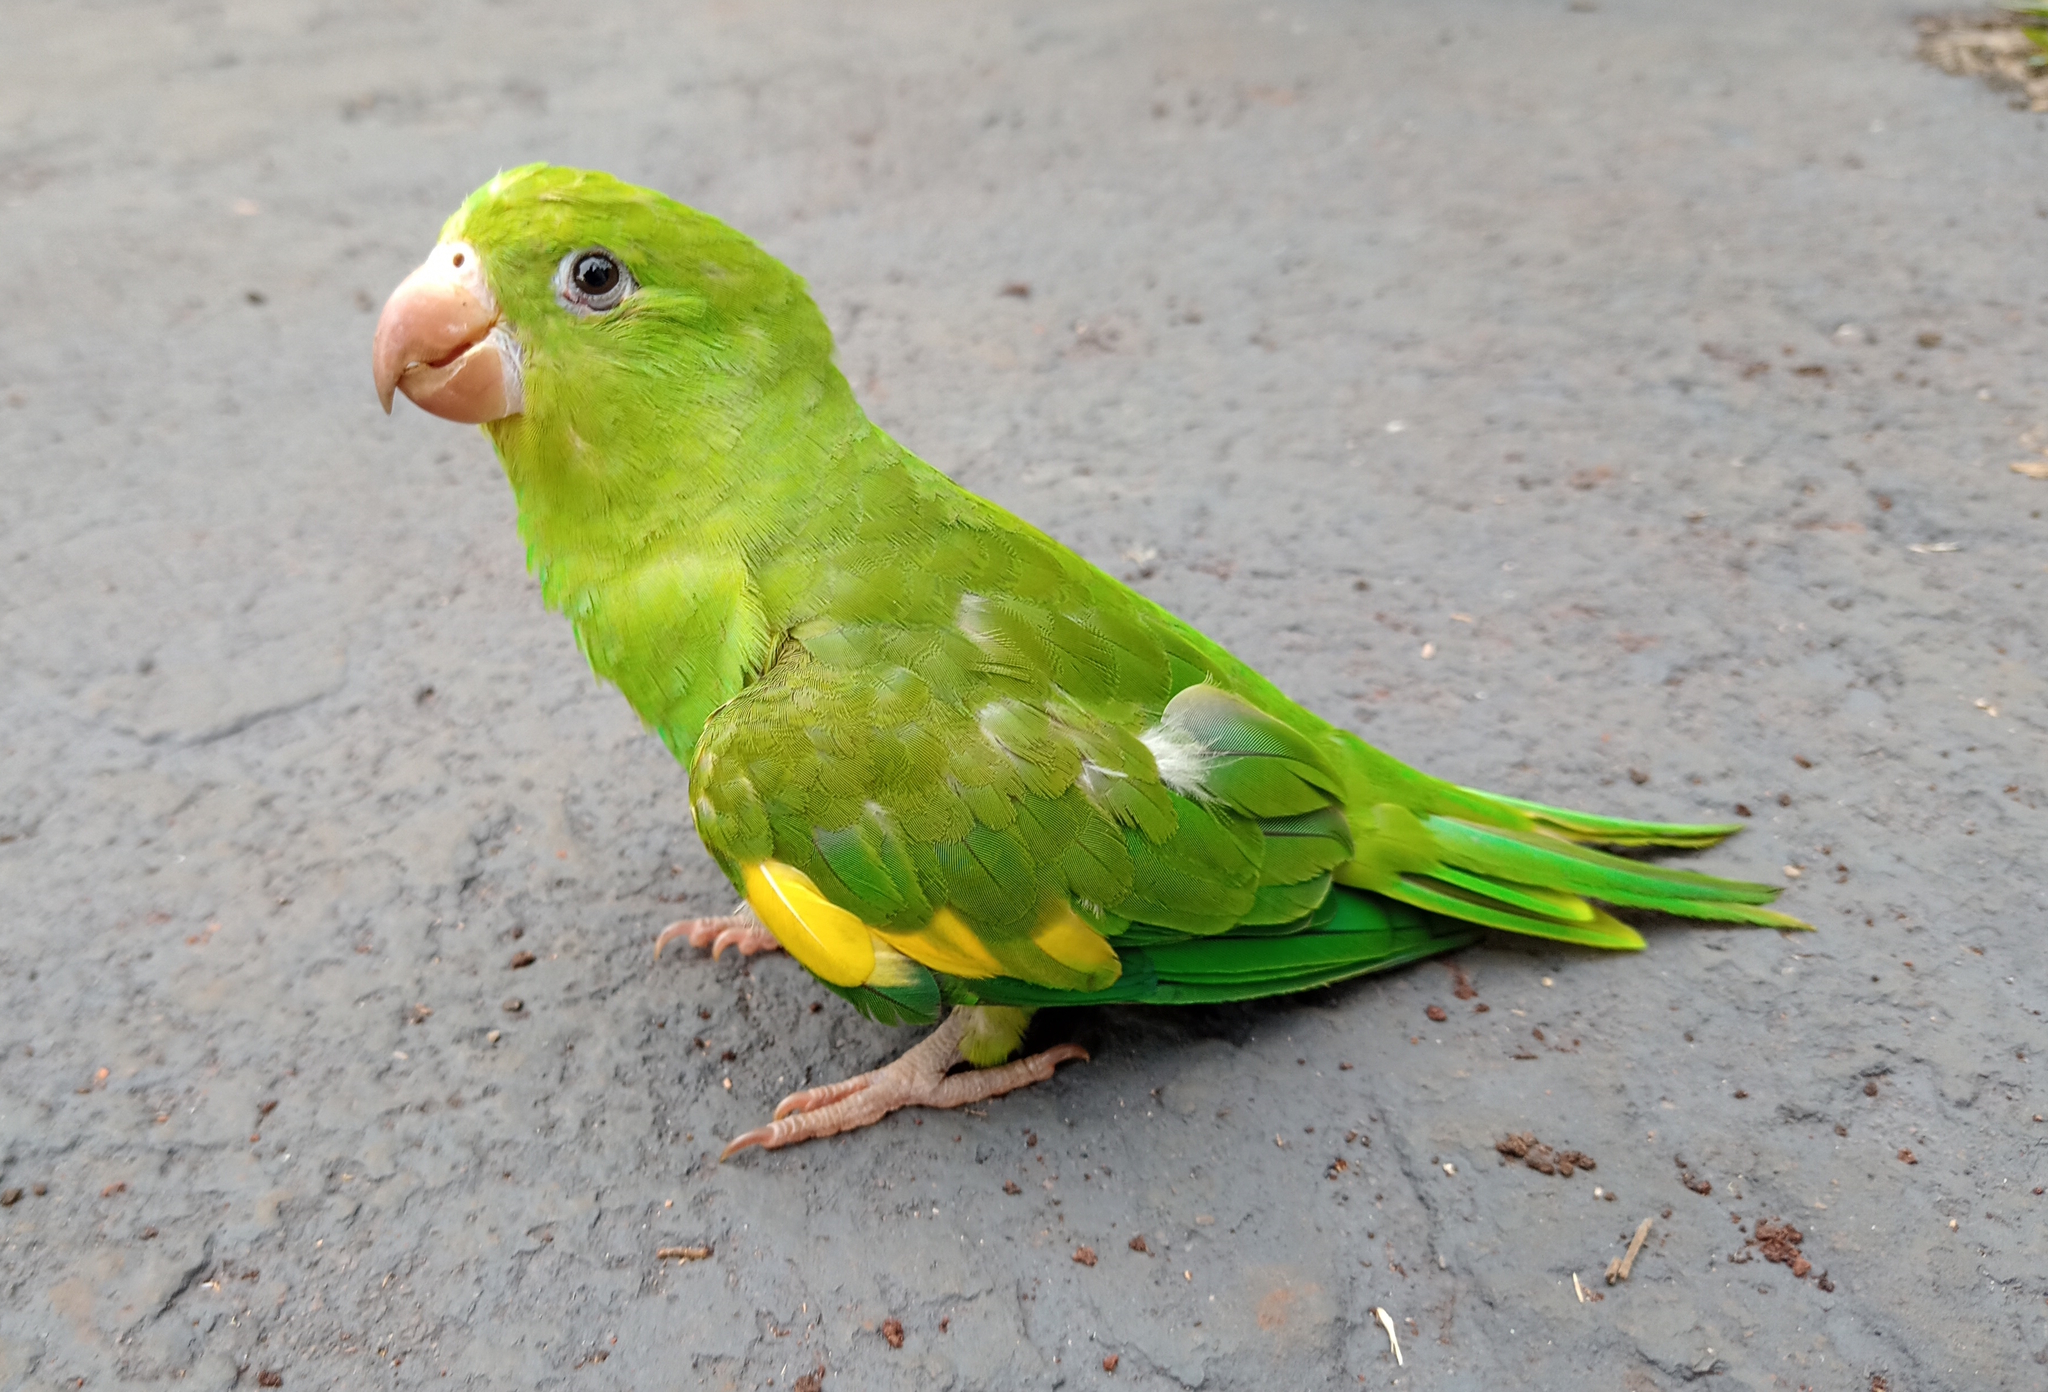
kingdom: Animalia
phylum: Chordata
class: Aves
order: Psittaciformes
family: Psittacidae
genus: Brotogeris
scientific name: Brotogeris chiriri
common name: Yellow-chevroned parakeet
